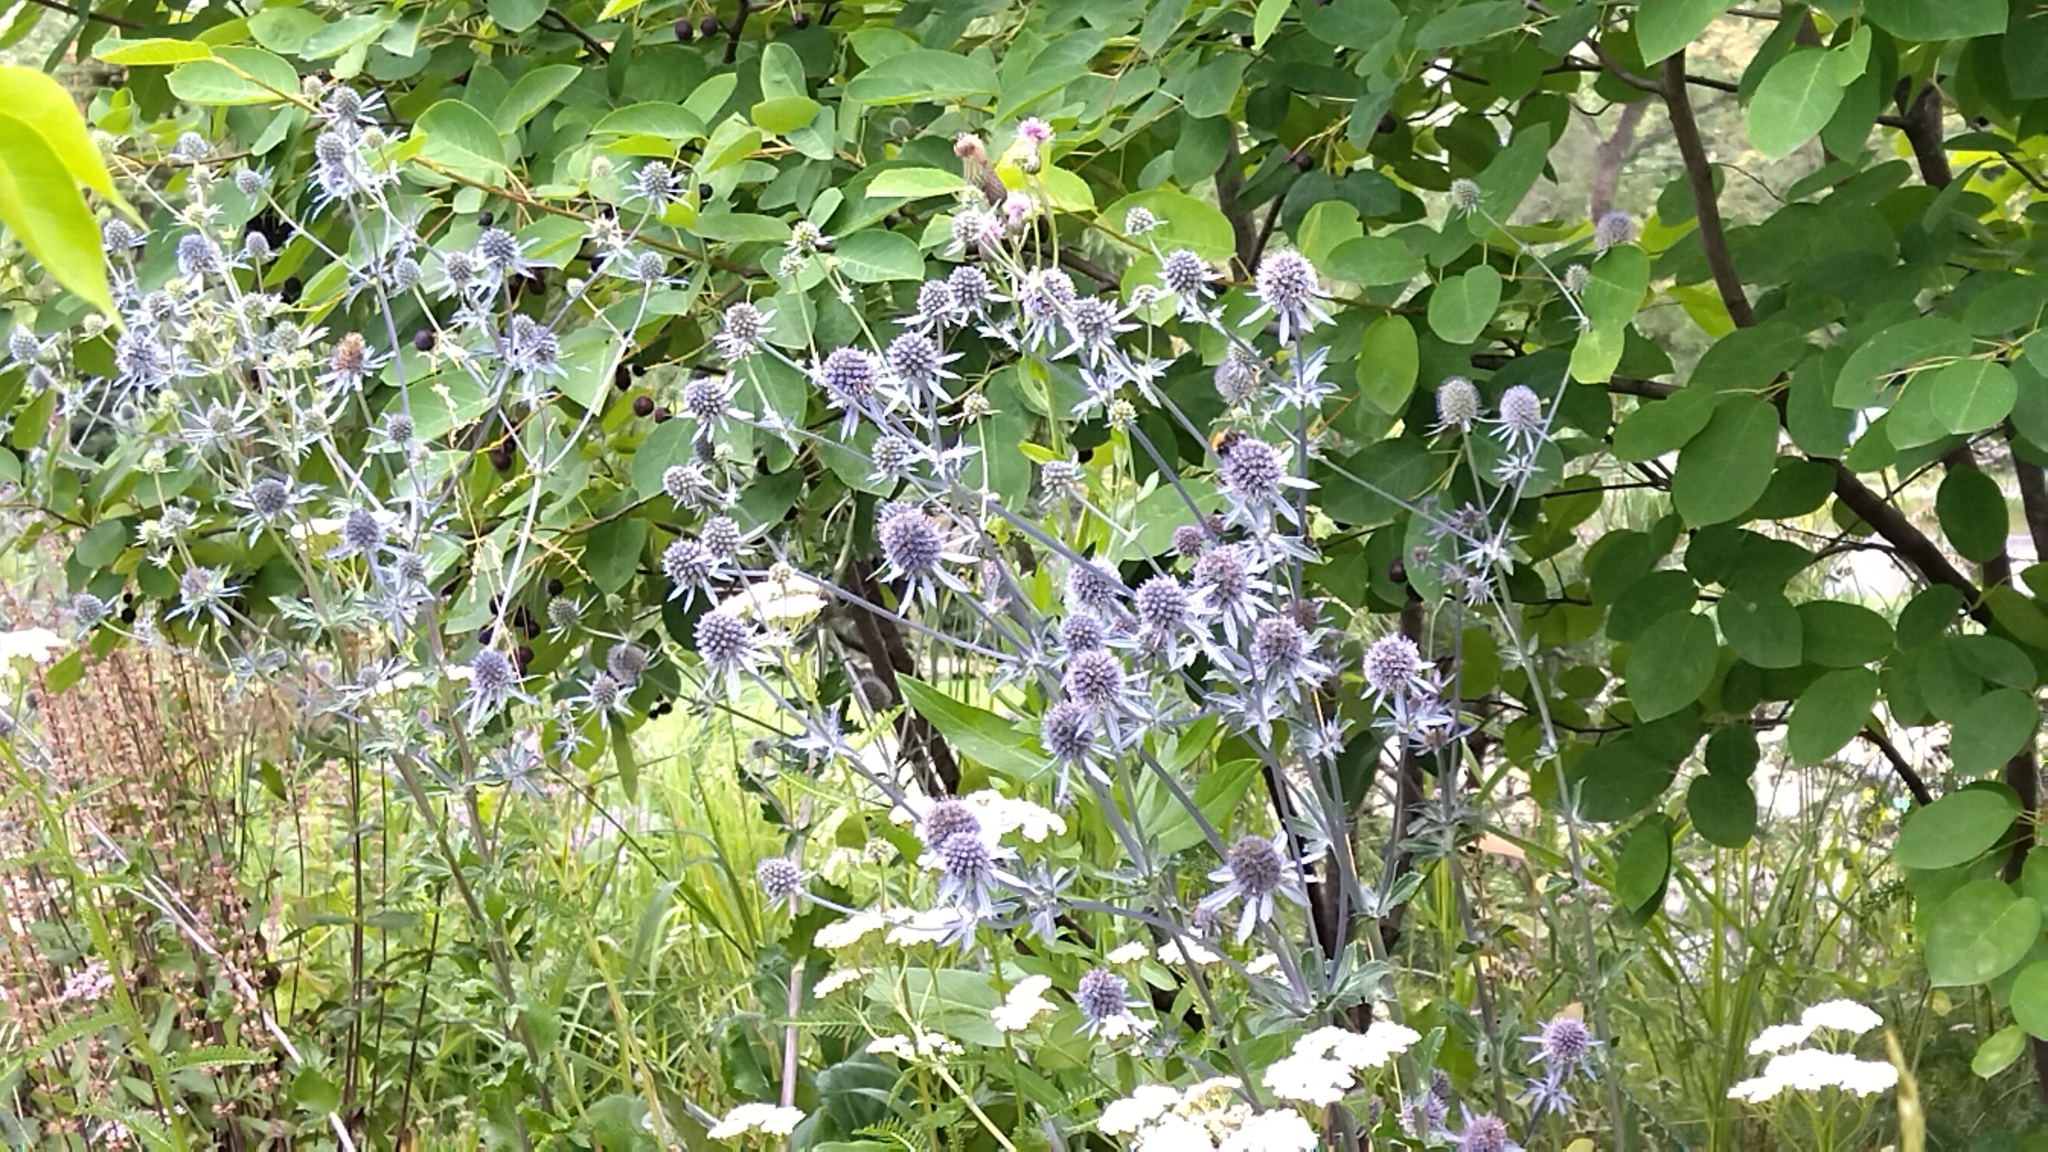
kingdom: Plantae
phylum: Tracheophyta
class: Magnoliopsida
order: Apiales
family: Apiaceae
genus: Eryngium
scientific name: Eryngium planum
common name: Blue eryngo
